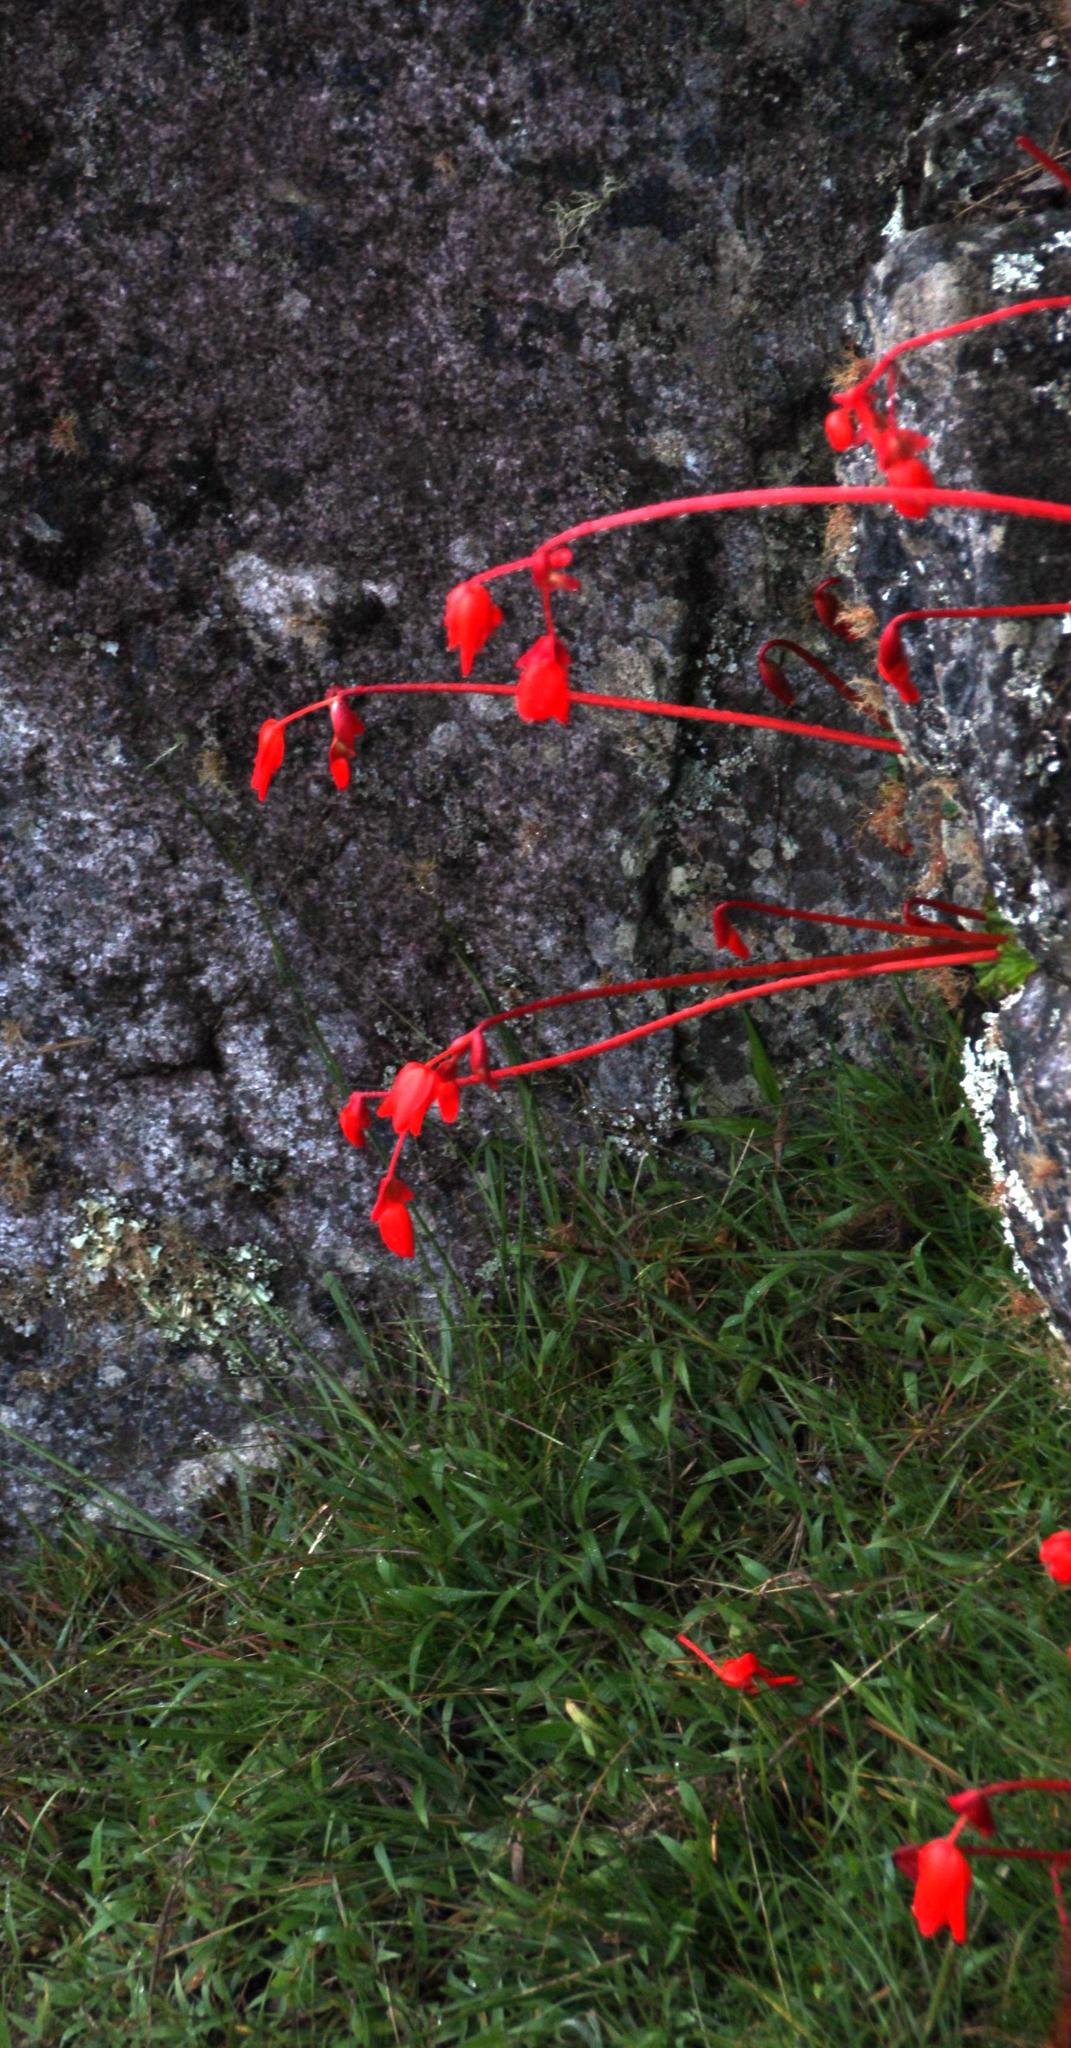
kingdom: Plantae
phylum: Tracheophyta
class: Magnoliopsida
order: Cucurbitales
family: Begoniaceae
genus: Begonia
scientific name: Begonia veitchii
